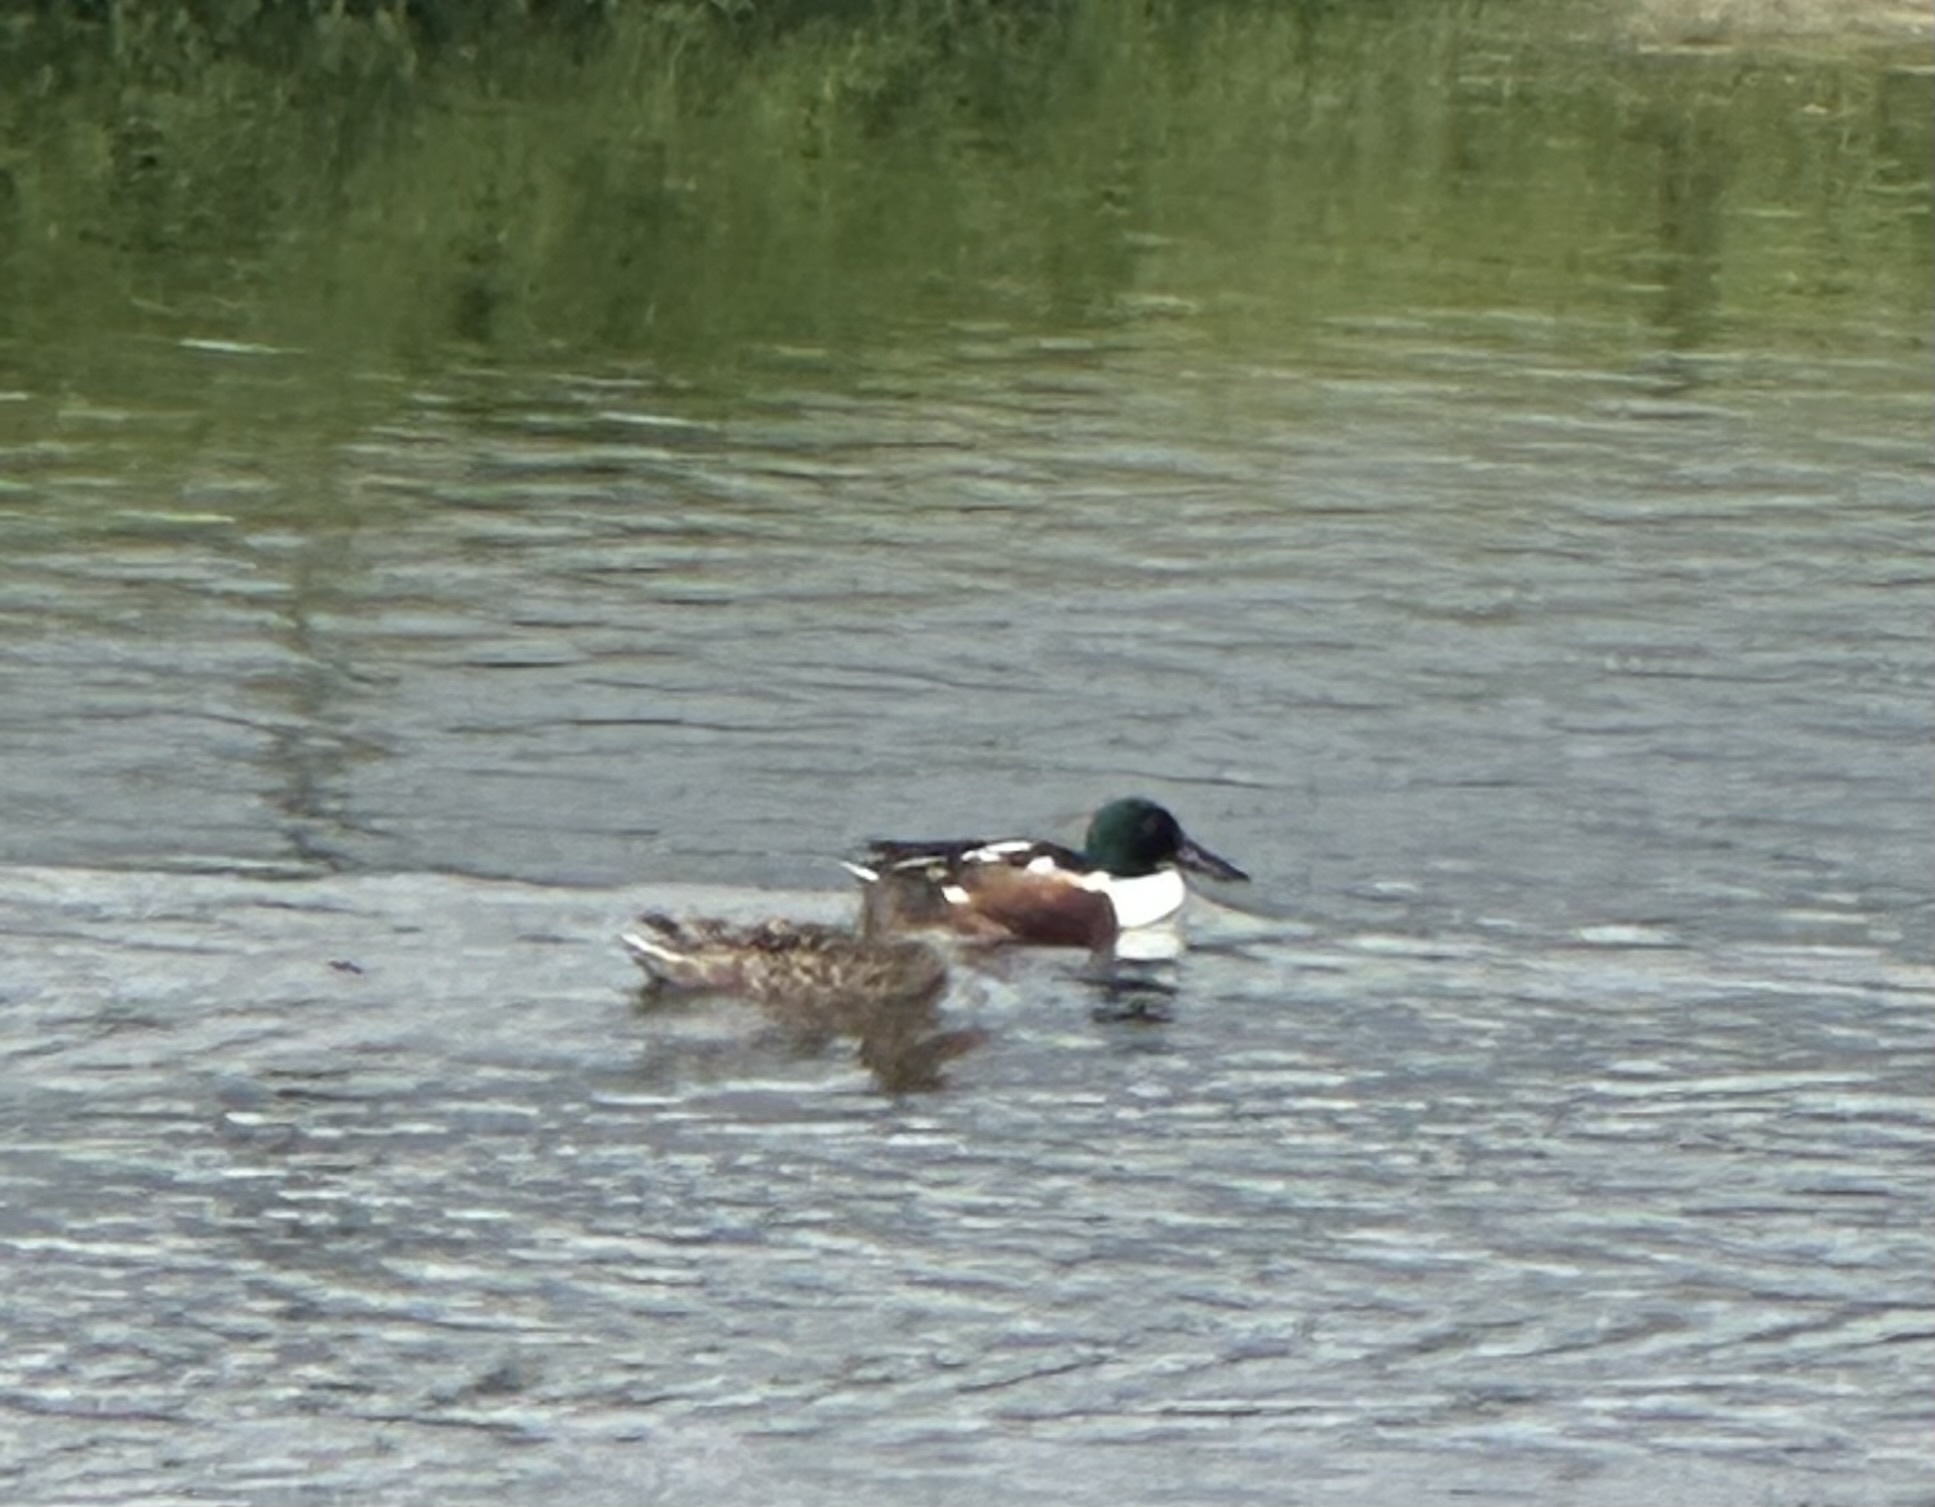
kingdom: Animalia
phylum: Chordata
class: Aves
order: Anseriformes
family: Anatidae
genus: Spatula
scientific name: Spatula clypeata
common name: Northern shoveler
